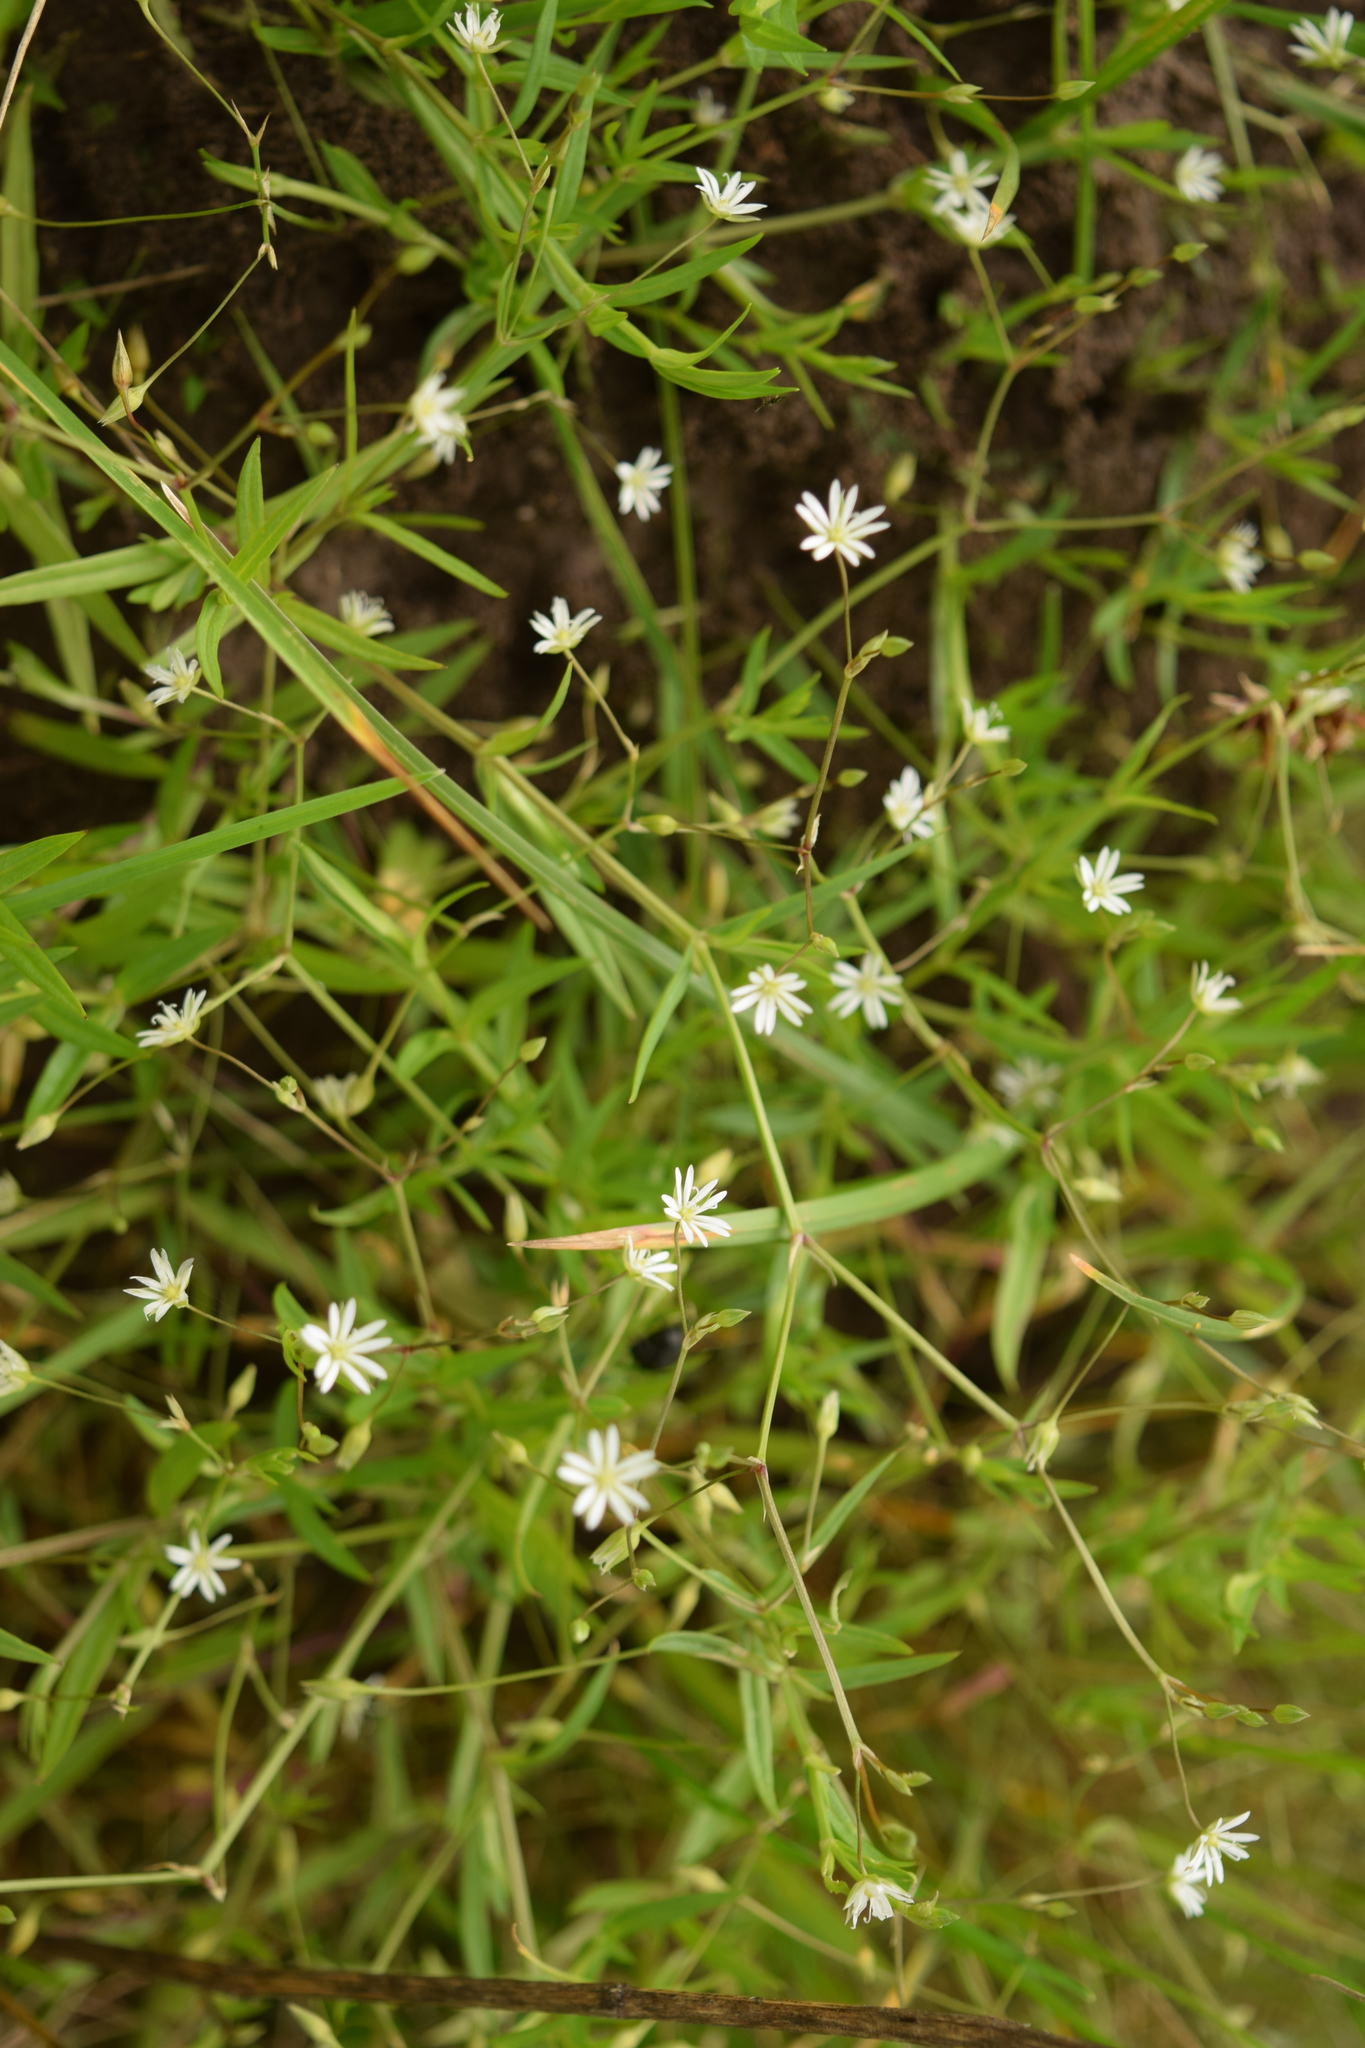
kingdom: Plantae
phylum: Tracheophyta
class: Magnoliopsida
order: Caryophyllales
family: Caryophyllaceae
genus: Stellaria
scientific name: Stellaria graminea
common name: Grass-like starwort
